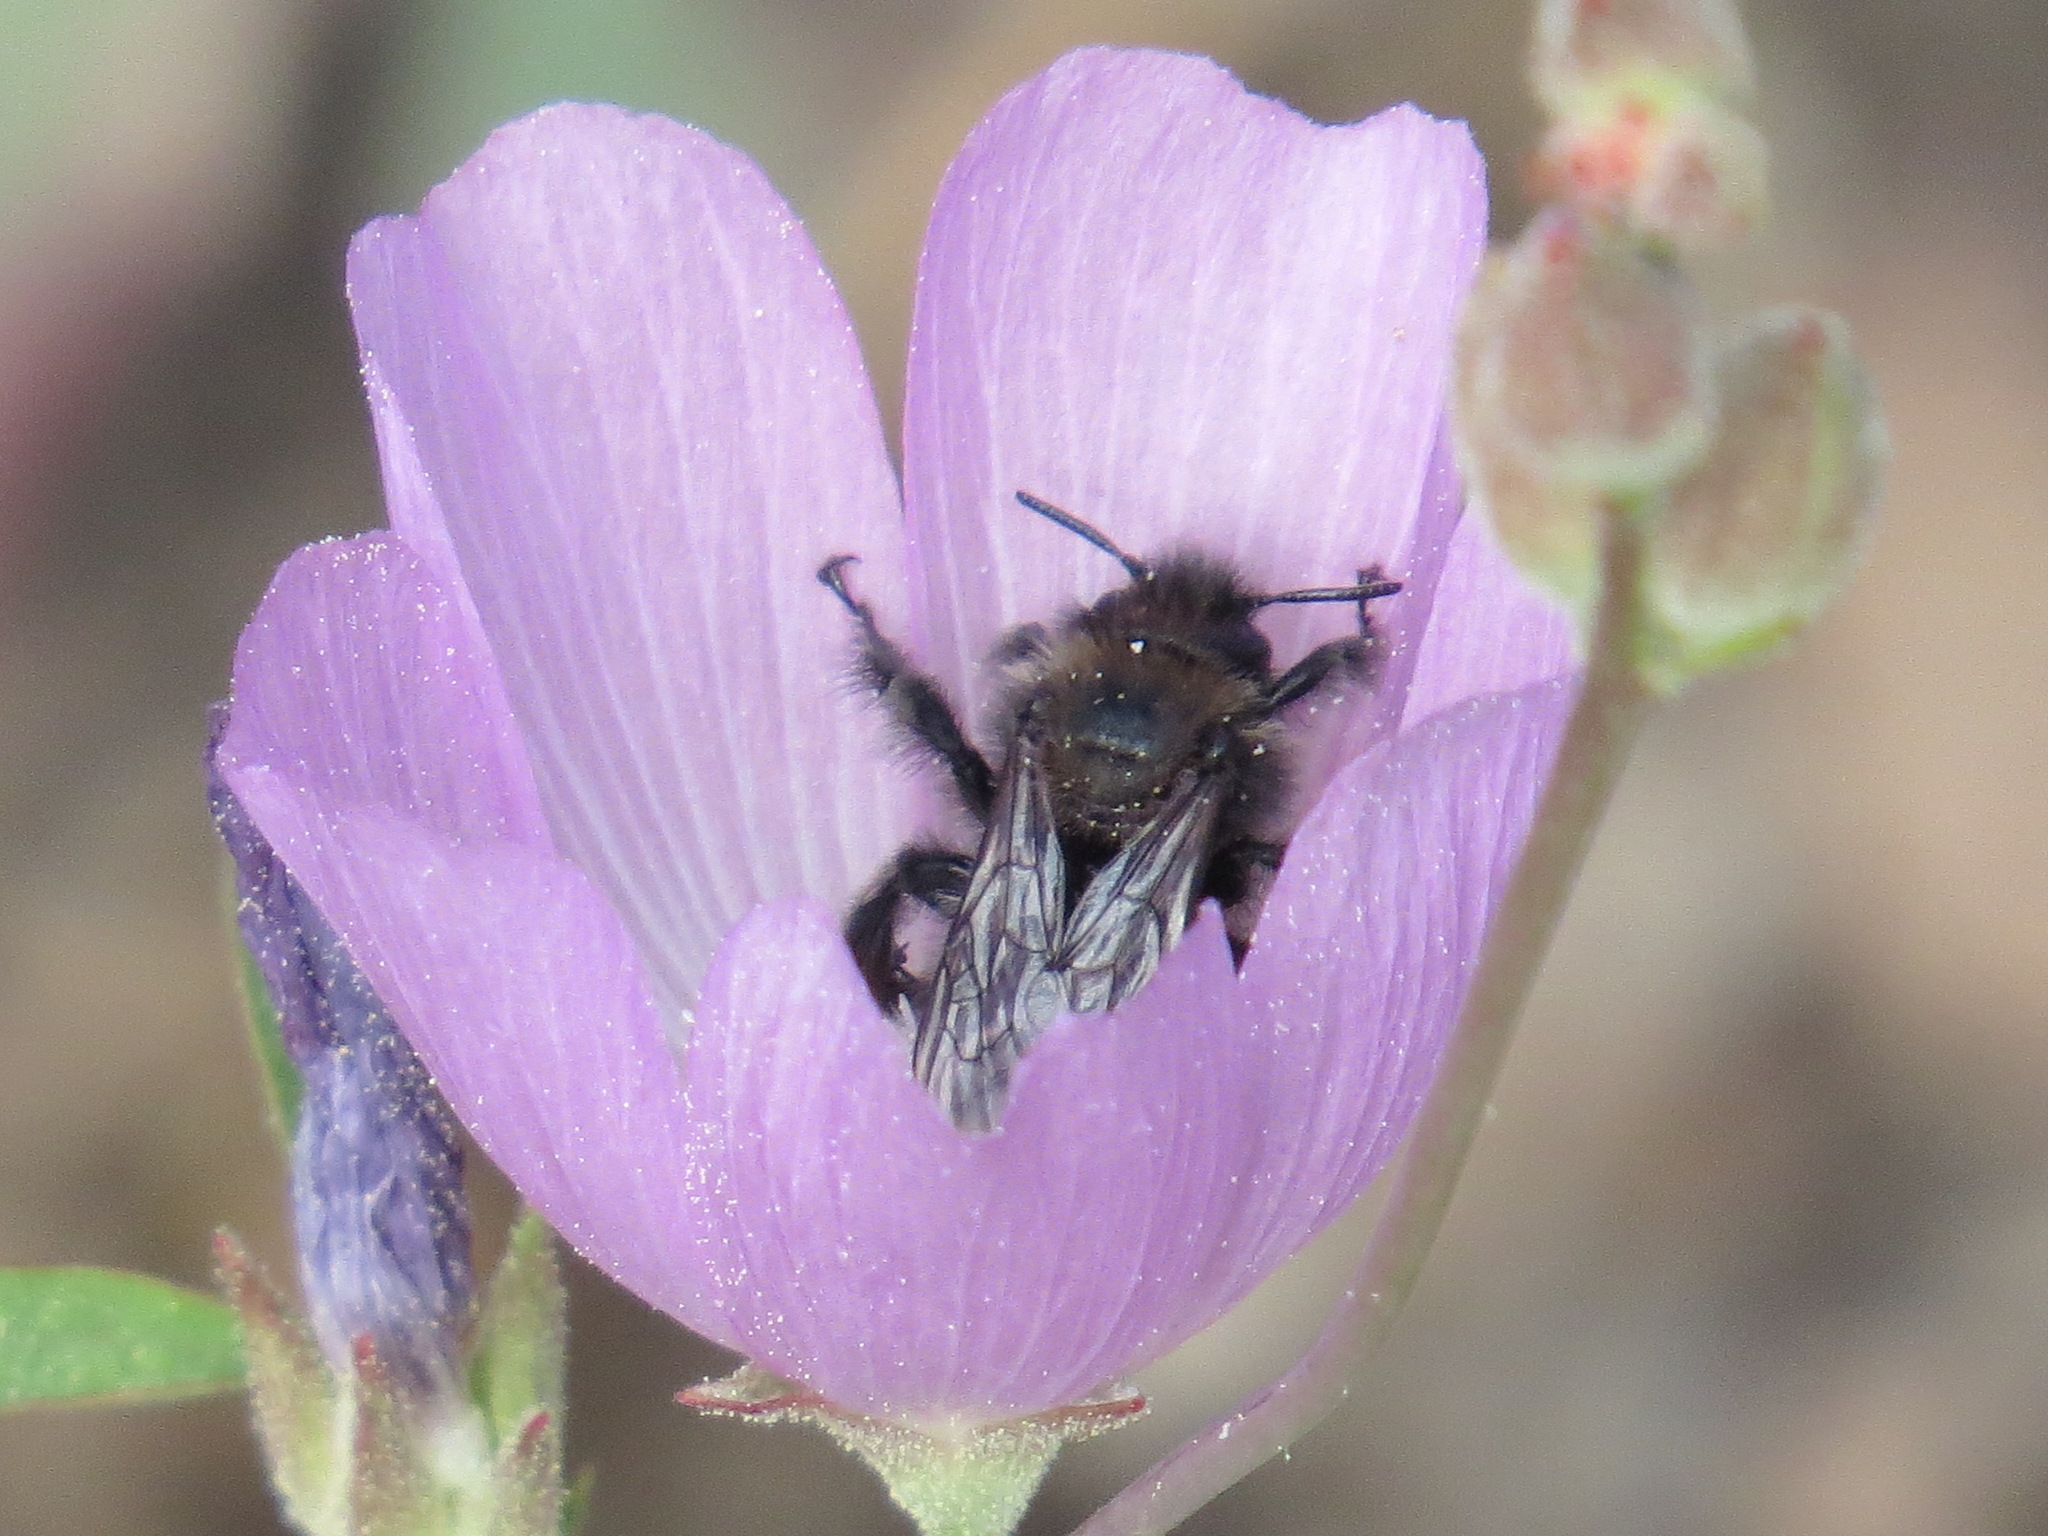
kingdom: Animalia
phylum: Arthropoda
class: Insecta
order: Hymenoptera
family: Apidae
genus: Diadasia
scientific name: Diadasia nigrifrons
